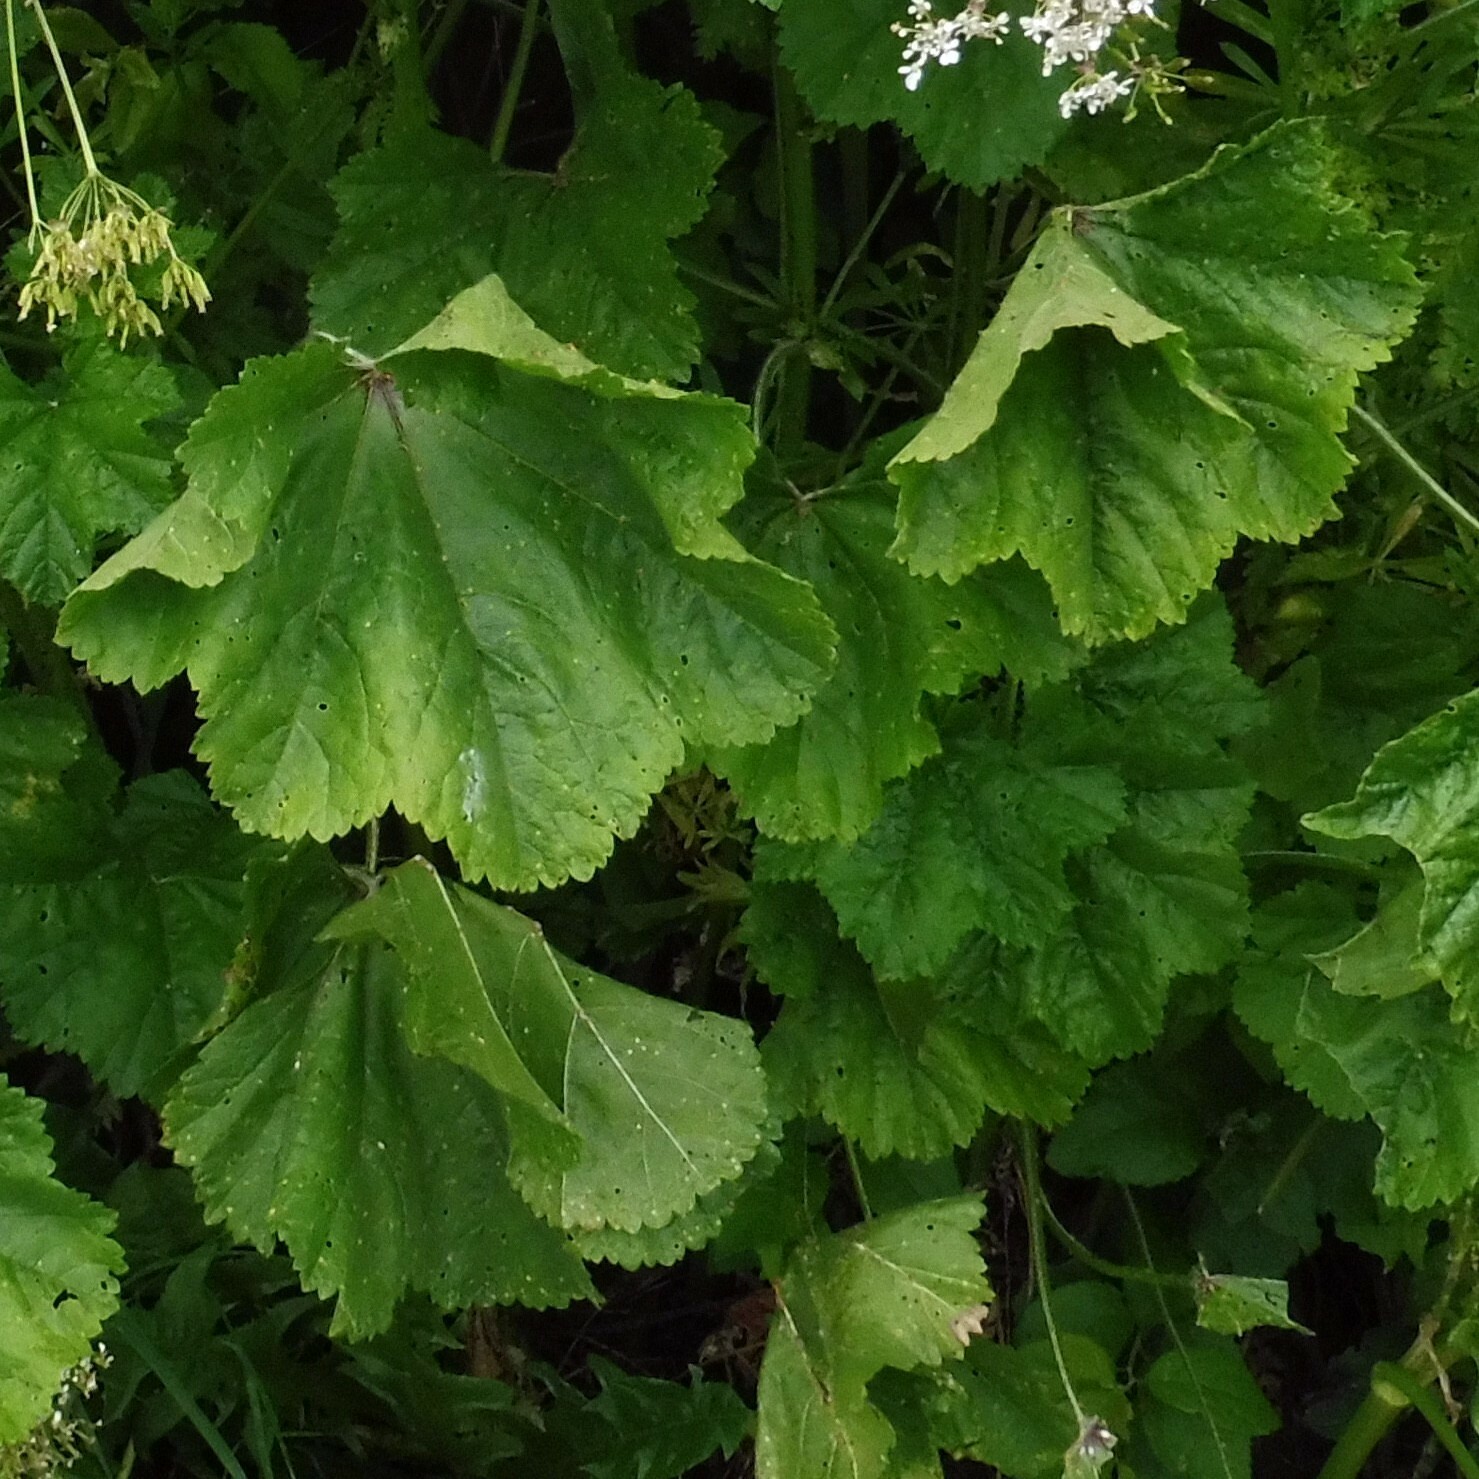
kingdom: Fungi
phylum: Basidiomycota
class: Pucciniomycetes
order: Pucciniales
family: Pucciniaceae
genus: Puccinia
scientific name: Puccinia malvacearum
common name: Hollyhock rust
